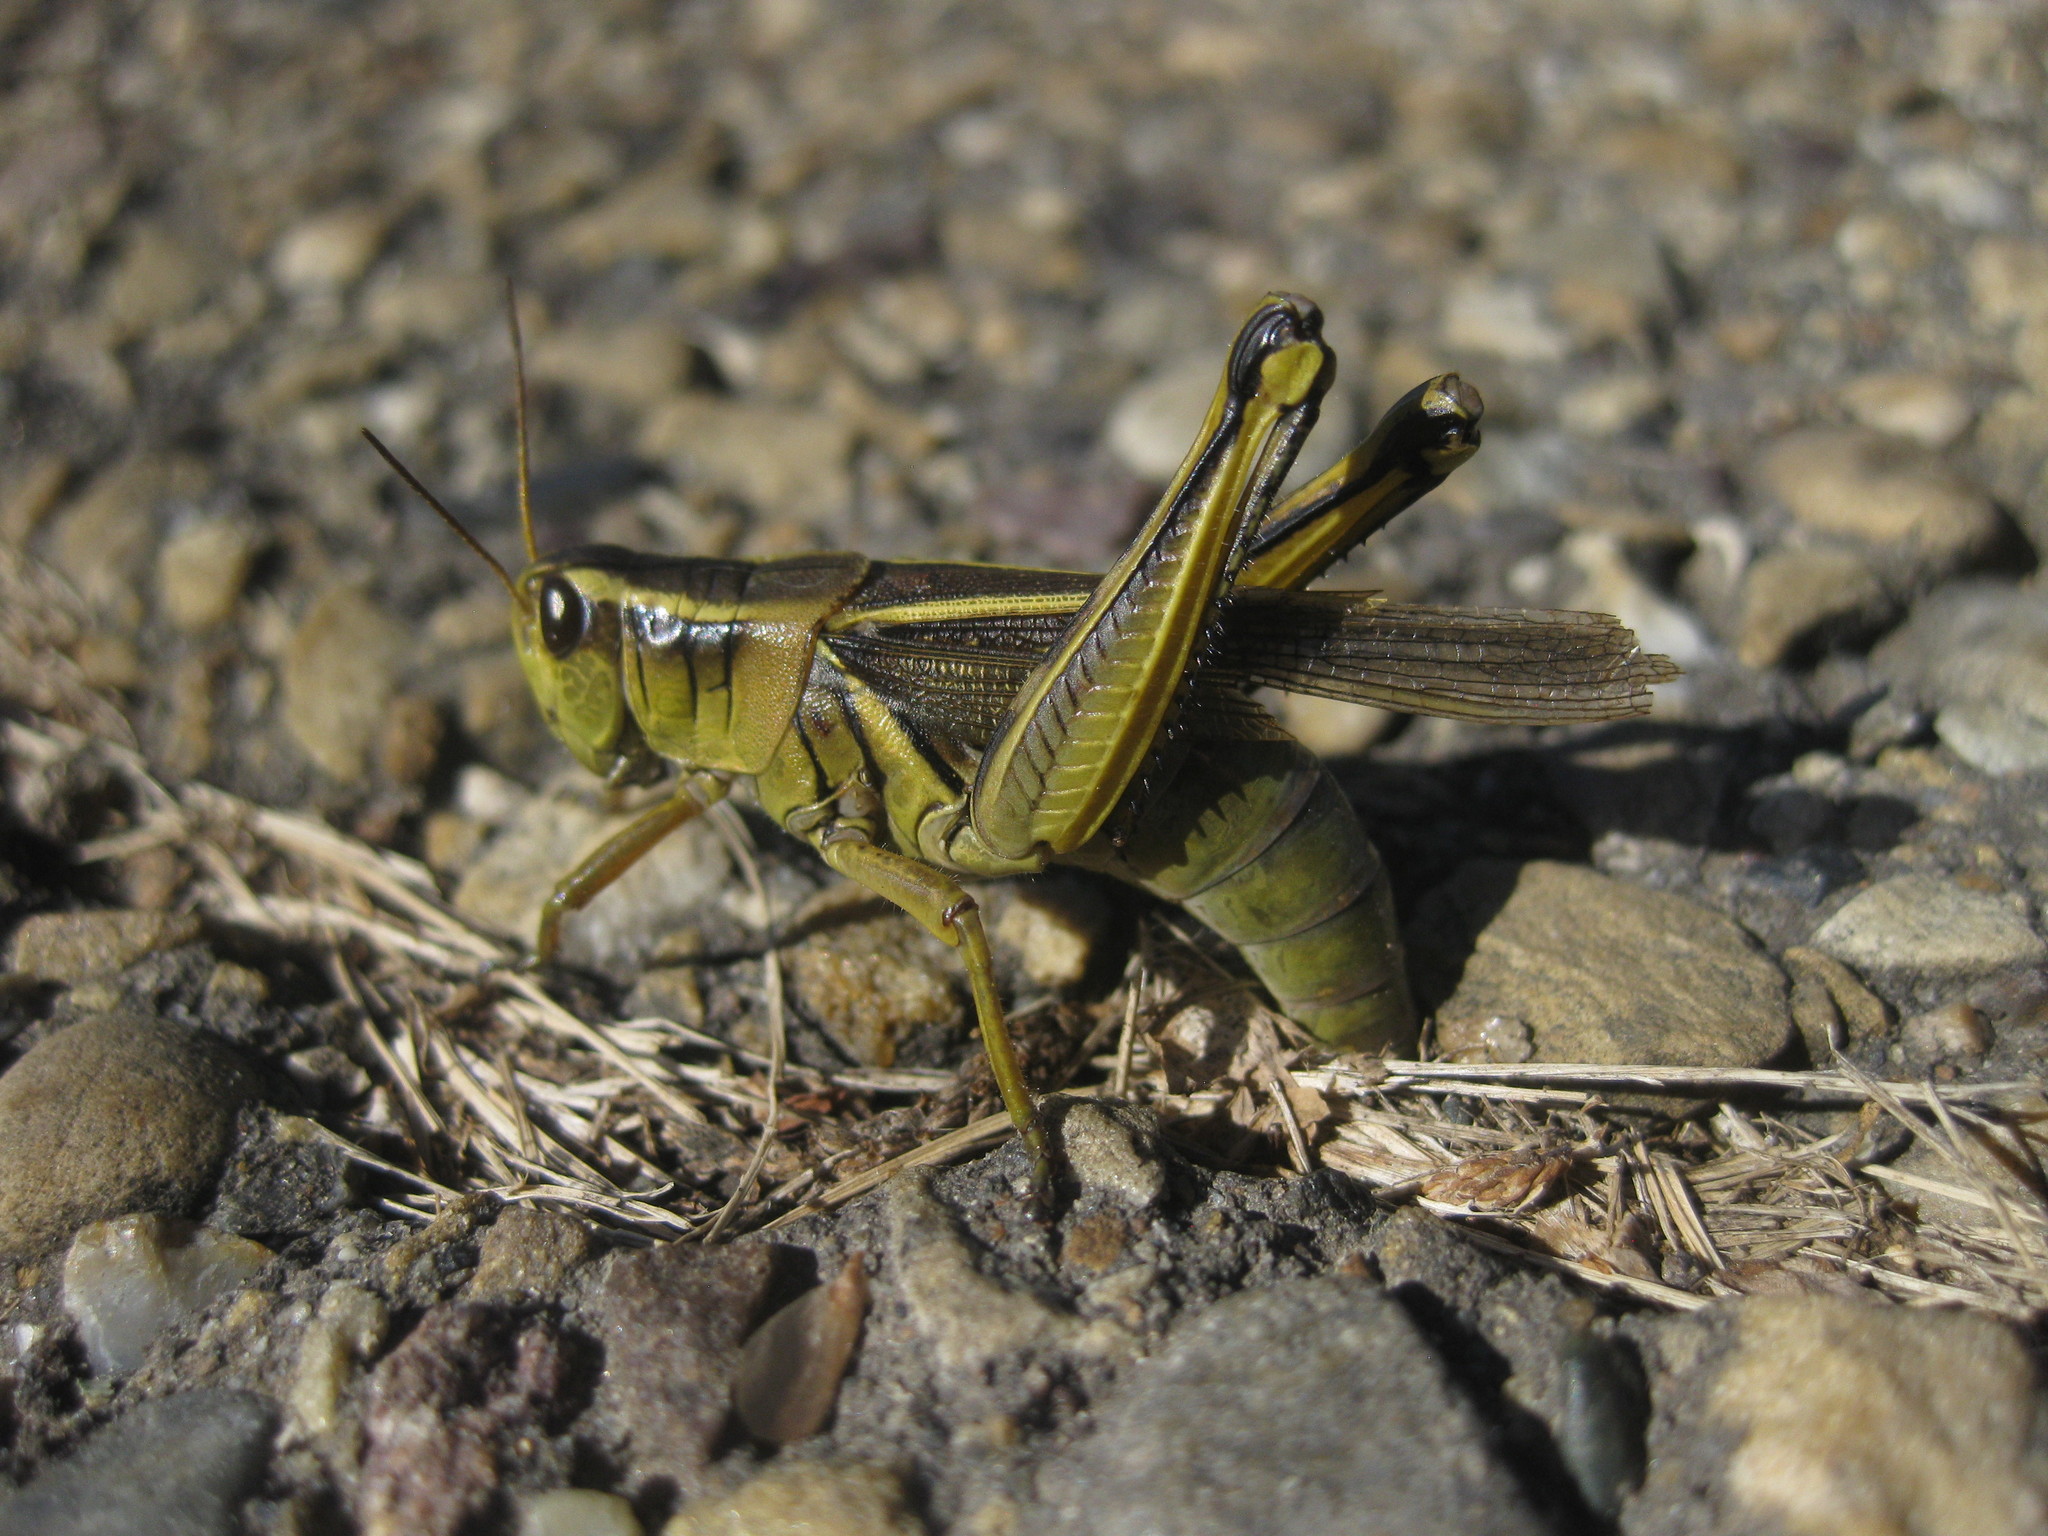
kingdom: Animalia
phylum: Arthropoda
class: Insecta
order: Orthoptera
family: Acrididae
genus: Melanoplus
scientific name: Melanoplus bivittatus
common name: Two-striped grasshopper
